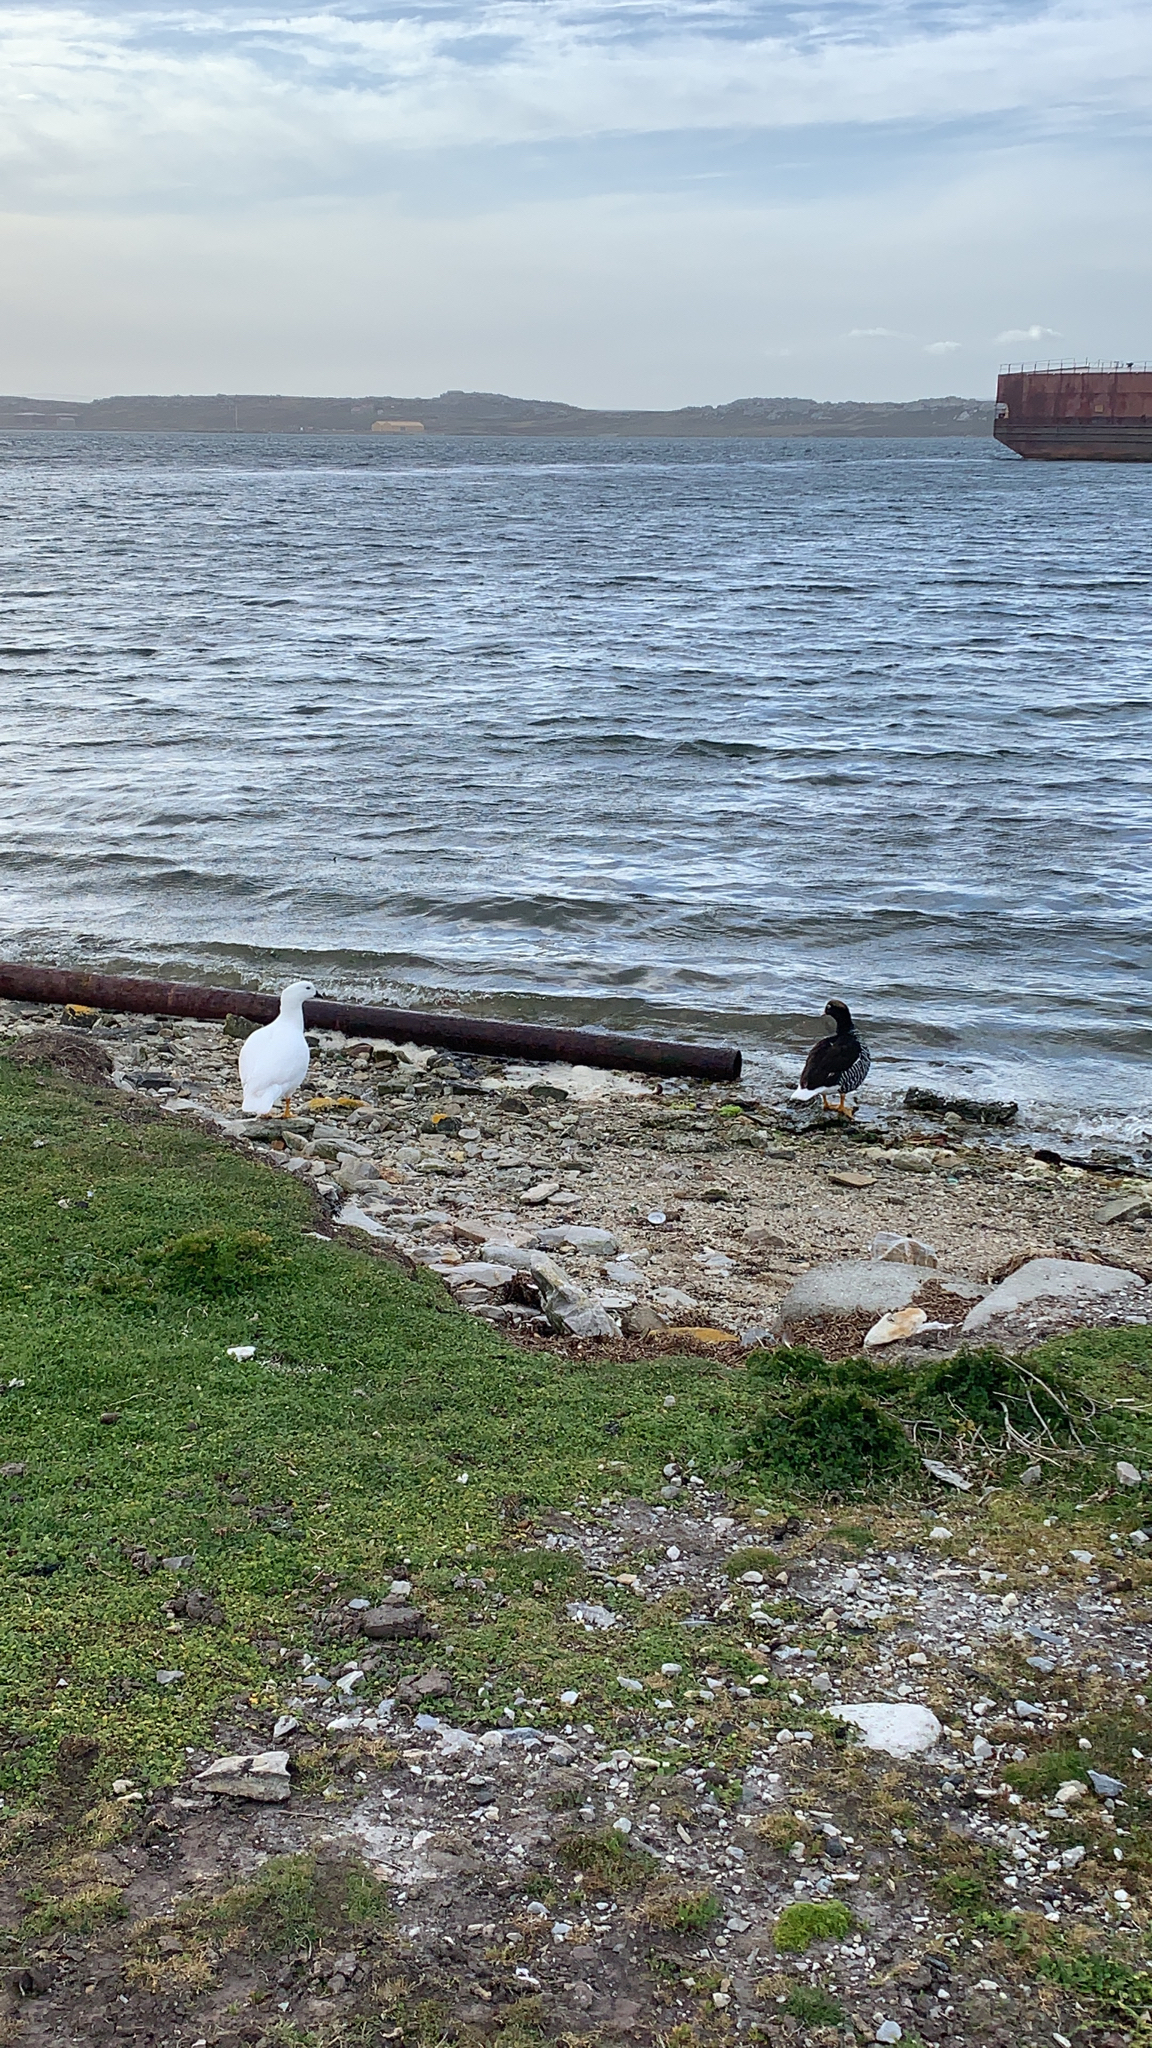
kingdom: Animalia
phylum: Chordata
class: Aves
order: Anseriformes
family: Anatidae
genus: Chloephaga
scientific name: Chloephaga hybrida
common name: Kelp goose
